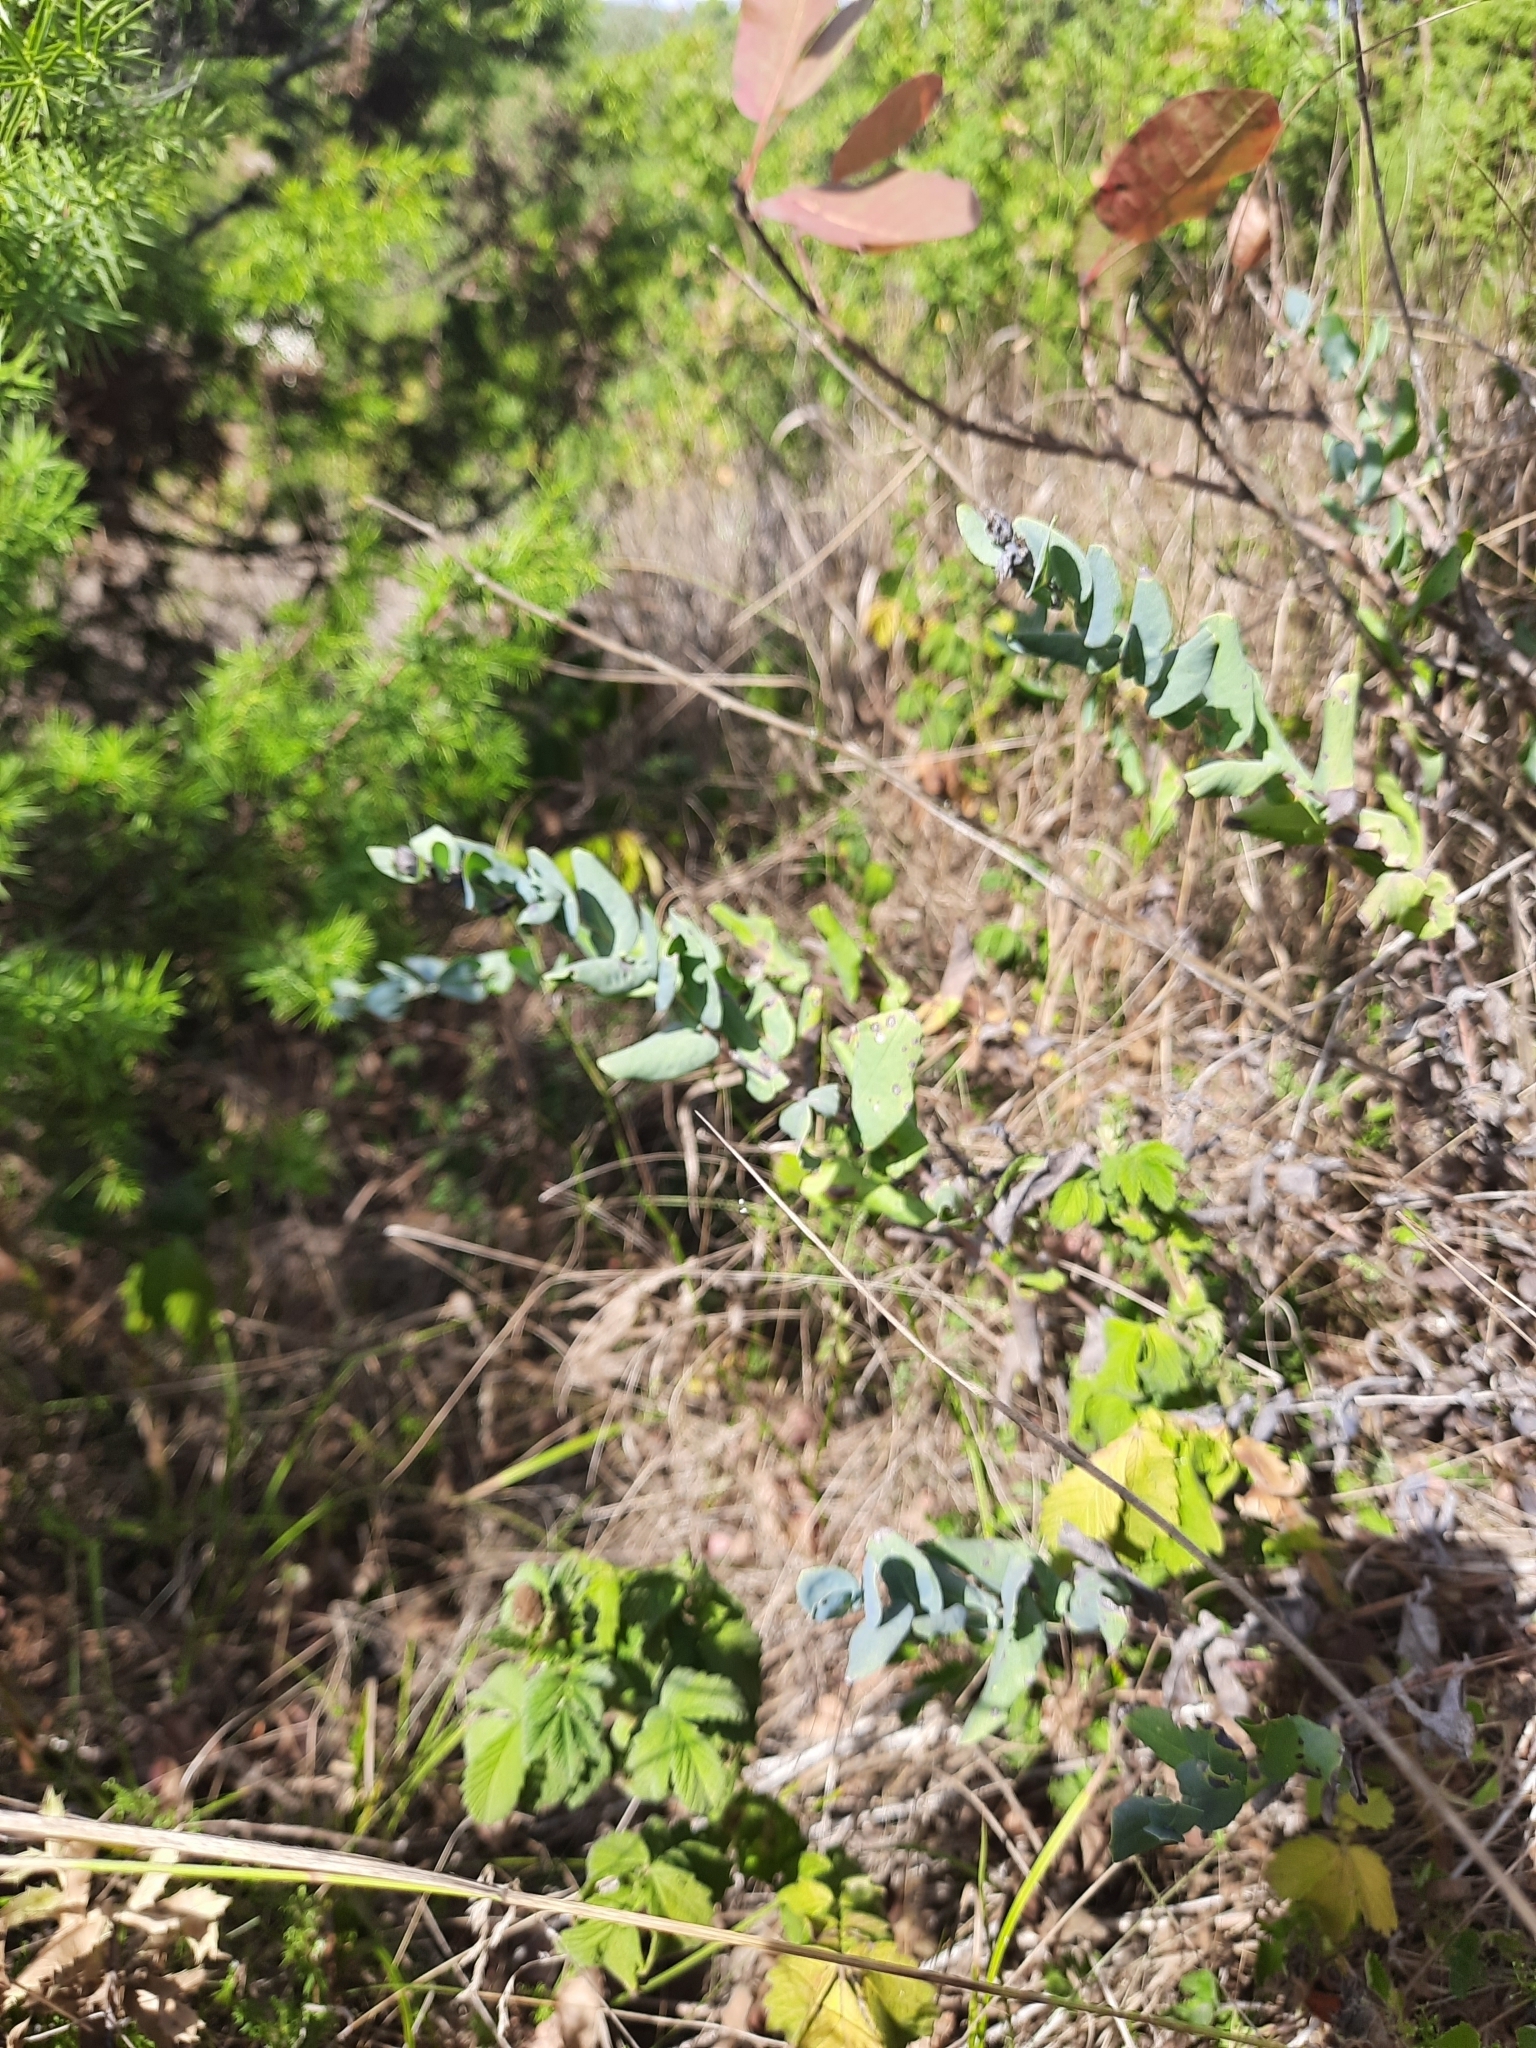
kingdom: Plantae
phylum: Tracheophyta
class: Magnoliopsida
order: Boraginales
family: Boraginaceae
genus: Cerinthe
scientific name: Cerinthe minor
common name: Lesser honeywort
